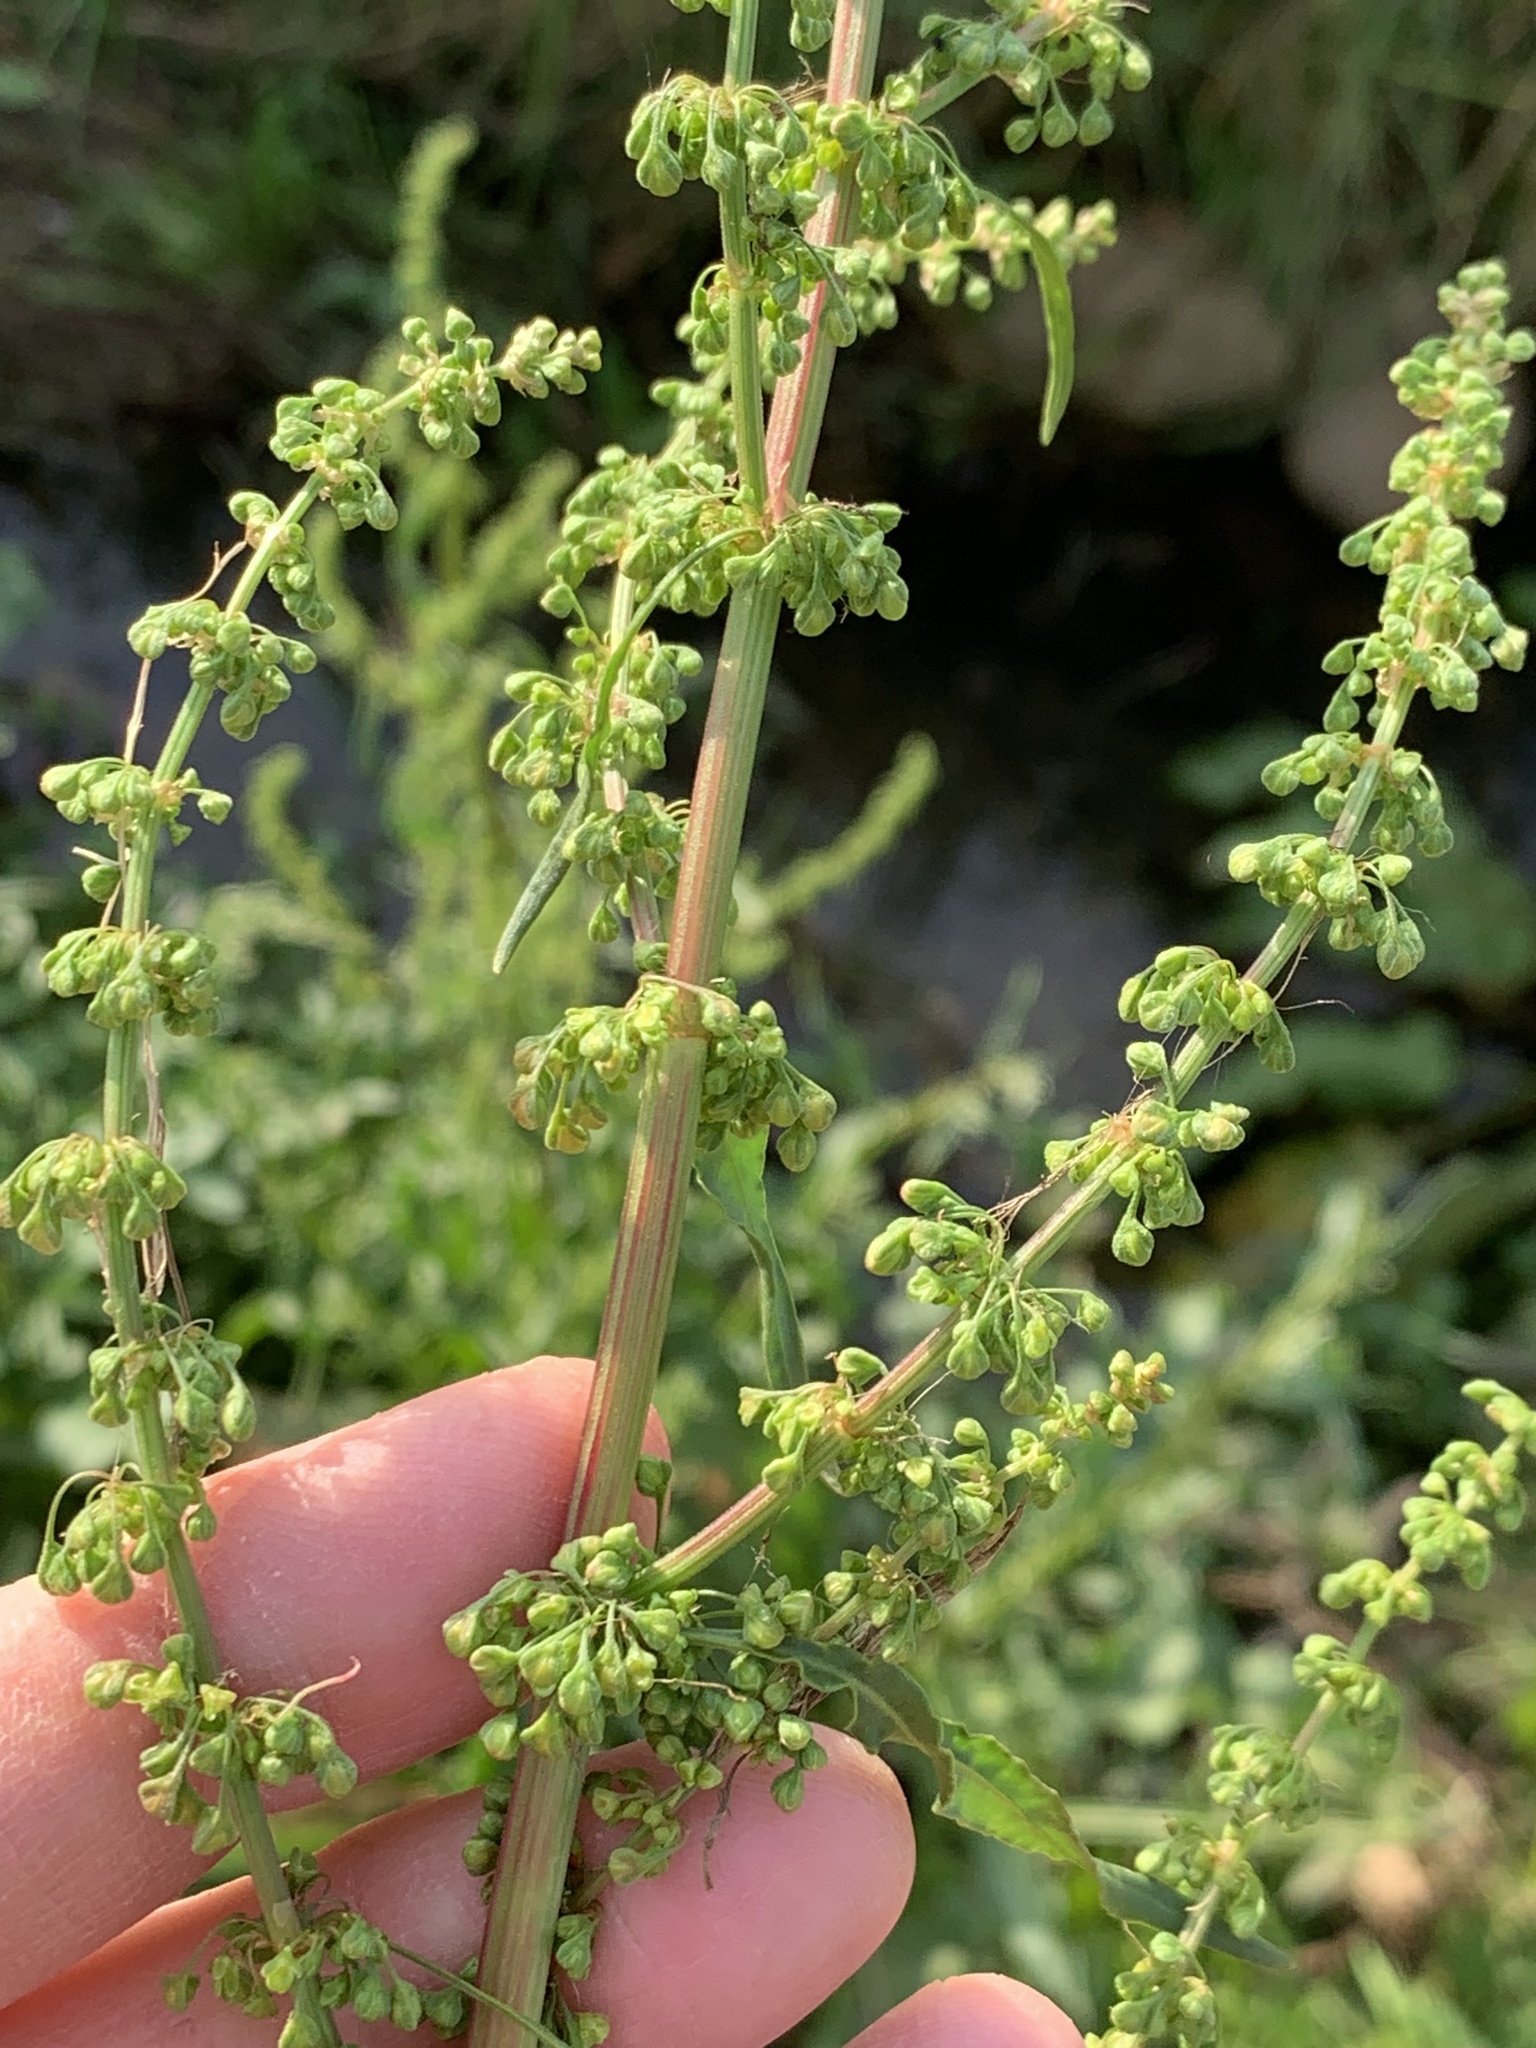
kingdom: Plantae
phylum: Tracheophyta
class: Magnoliopsida
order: Caryophyllales
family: Polygonaceae
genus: Rumex
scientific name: Rumex crispus
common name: Curled dock
